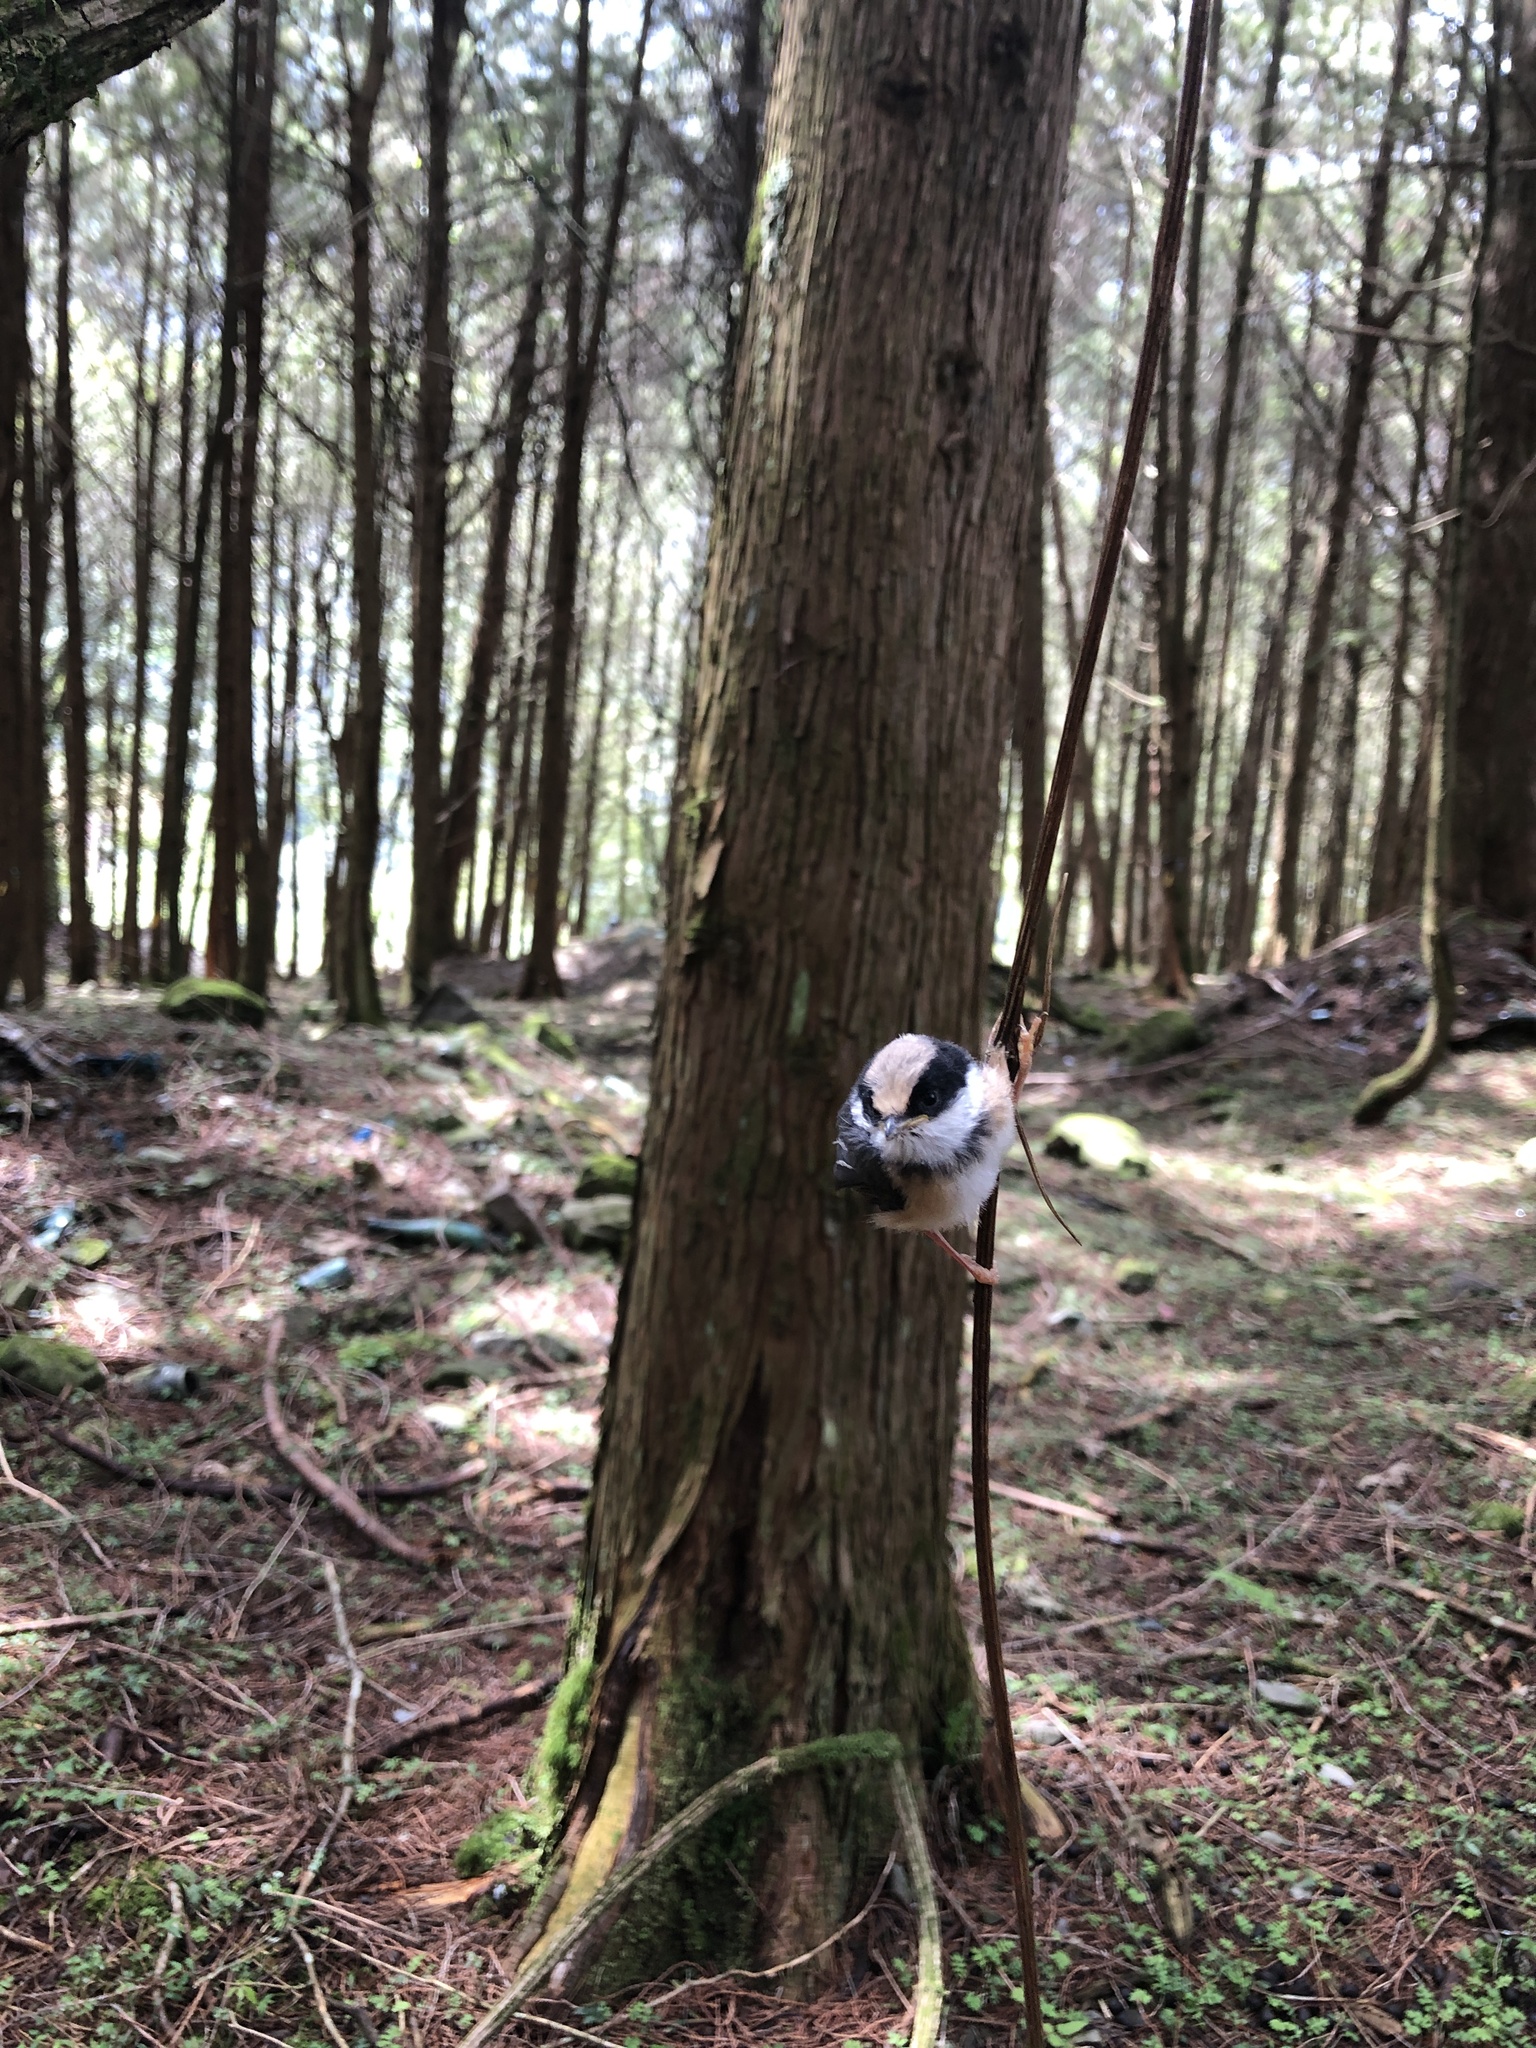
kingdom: Animalia
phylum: Chordata
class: Aves
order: Passeriformes
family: Aegithalidae
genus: Aegithalos
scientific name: Aegithalos concinnus
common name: Black-throated bushtit
